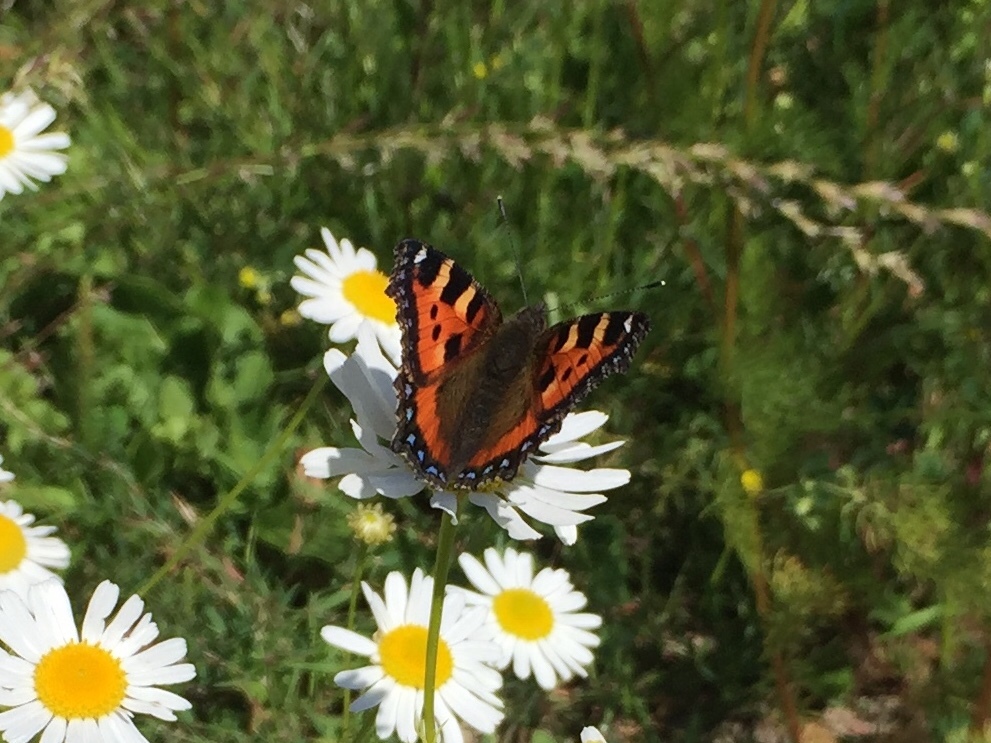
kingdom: Animalia
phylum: Arthropoda
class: Insecta
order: Lepidoptera
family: Nymphalidae
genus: Aglais
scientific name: Aglais urticae
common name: Small tortoiseshell
